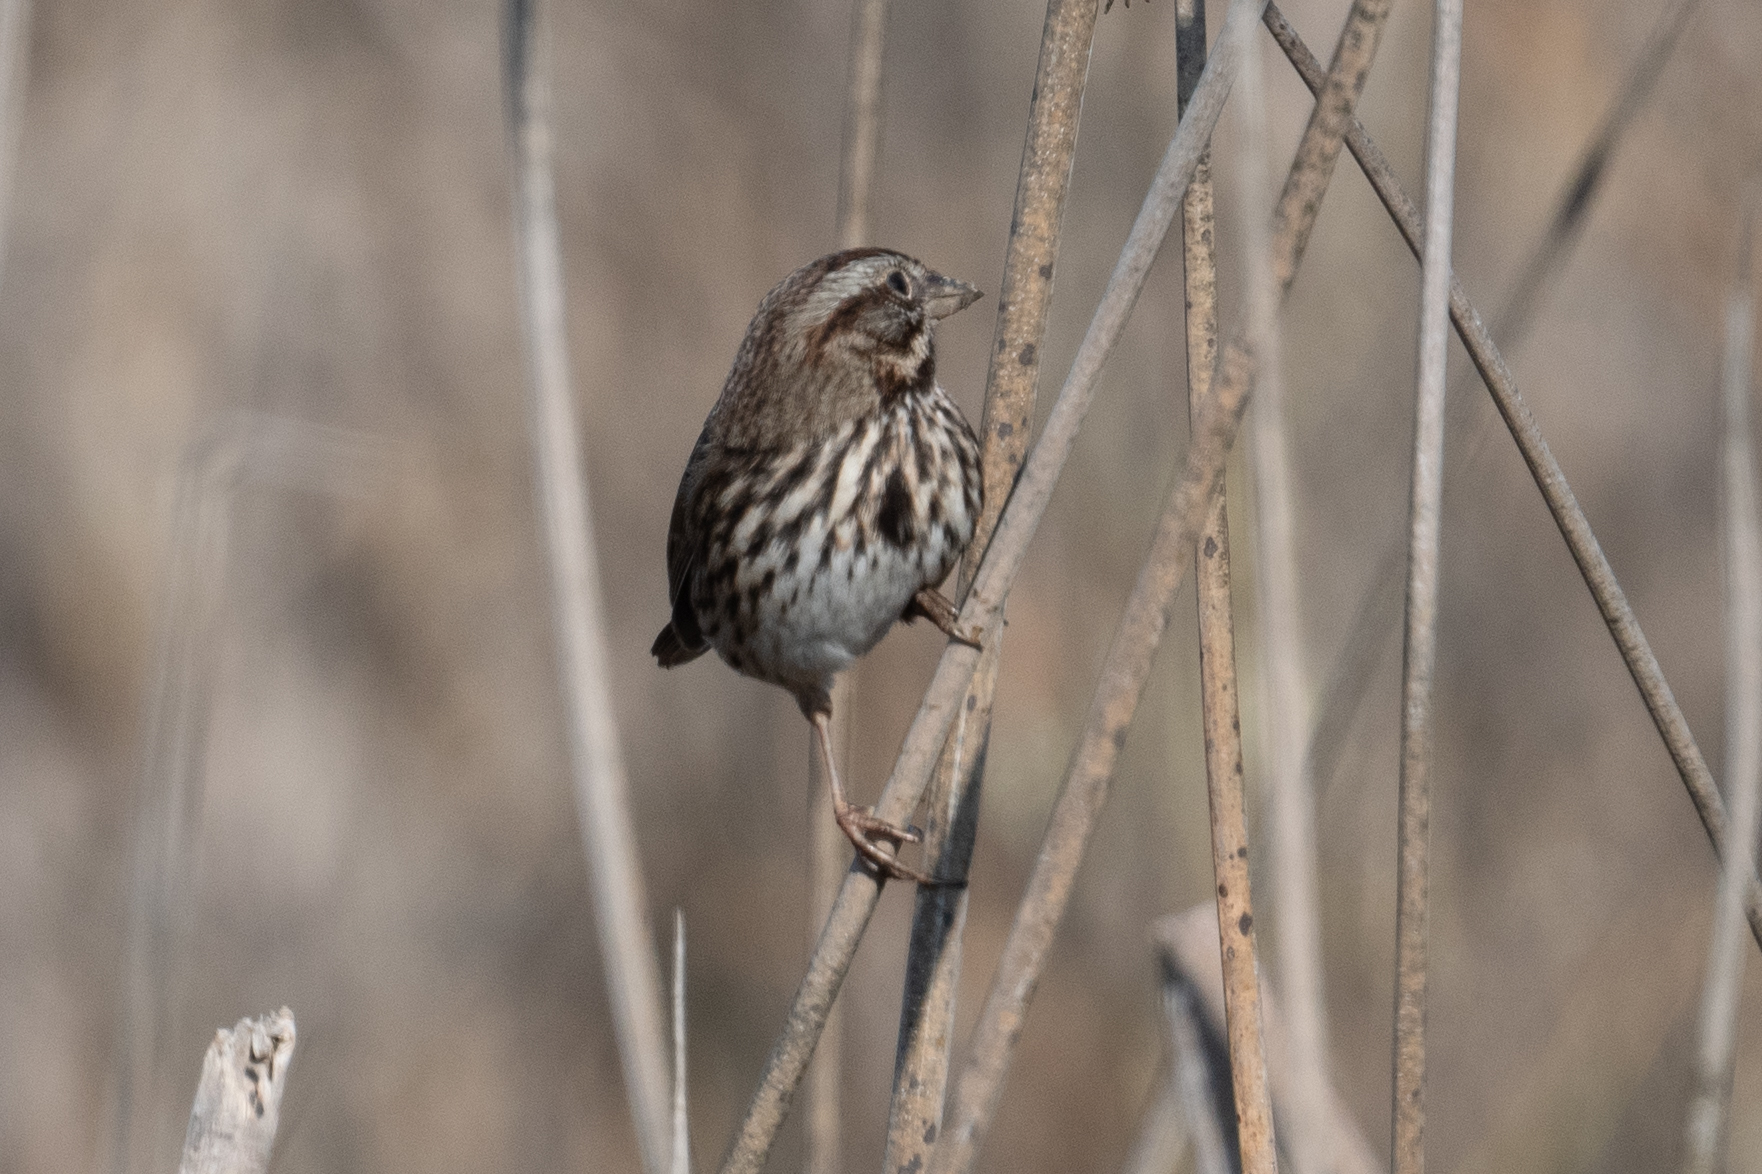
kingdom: Animalia
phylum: Chordata
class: Aves
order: Passeriformes
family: Passerellidae
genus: Melospiza
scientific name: Melospiza melodia
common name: Song sparrow
